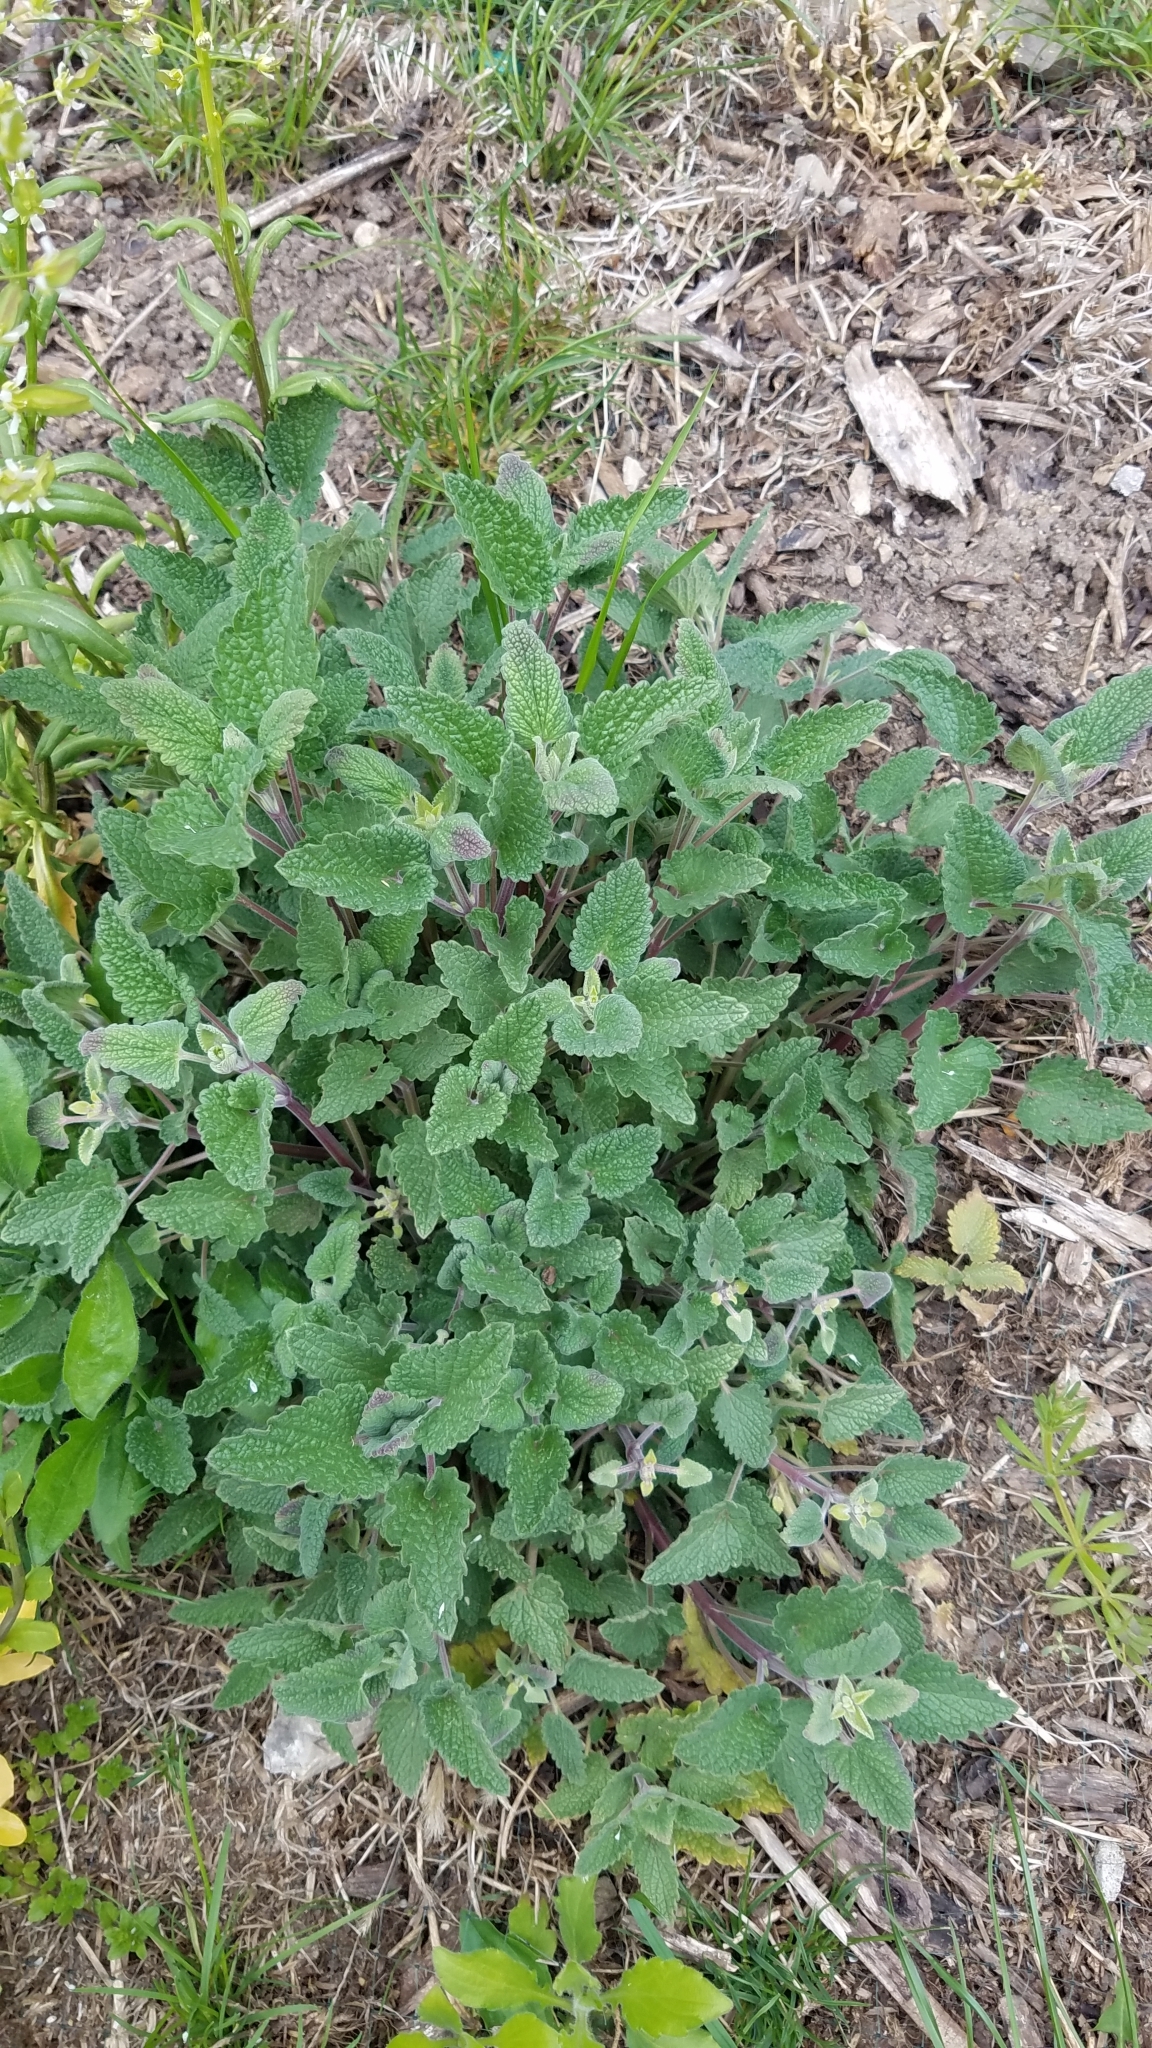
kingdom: Plantae
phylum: Tracheophyta
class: Magnoliopsida
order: Lamiales
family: Lamiaceae
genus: Nepeta
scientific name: Nepeta cataria
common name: Catnip
